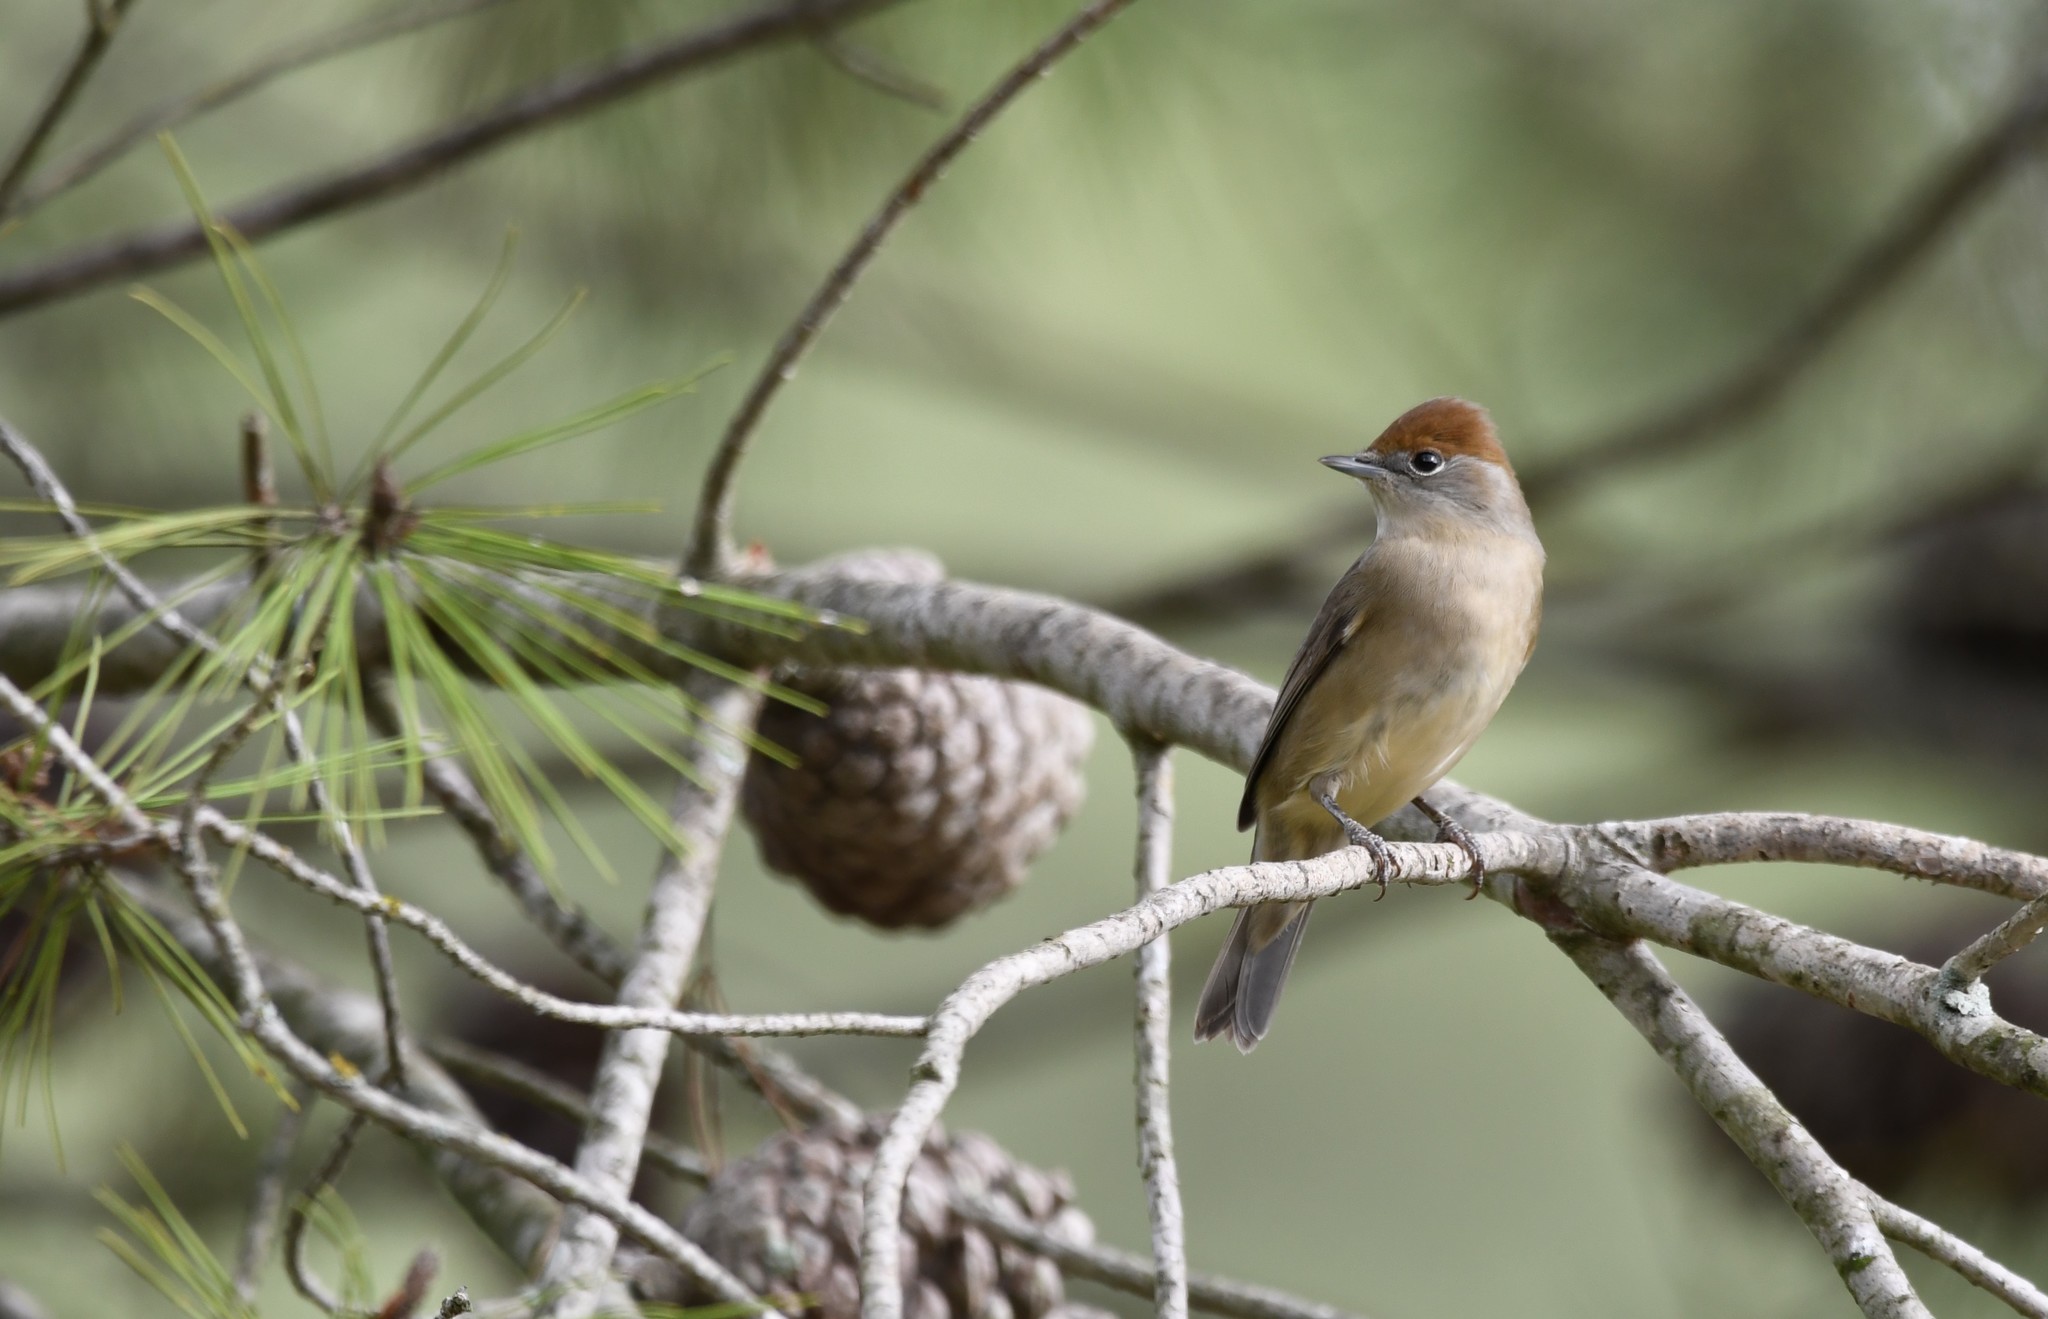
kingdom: Animalia
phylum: Chordata
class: Aves
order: Passeriformes
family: Sylviidae
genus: Sylvia
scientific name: Sylvia atricapilla
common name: Eurasian blackcap
